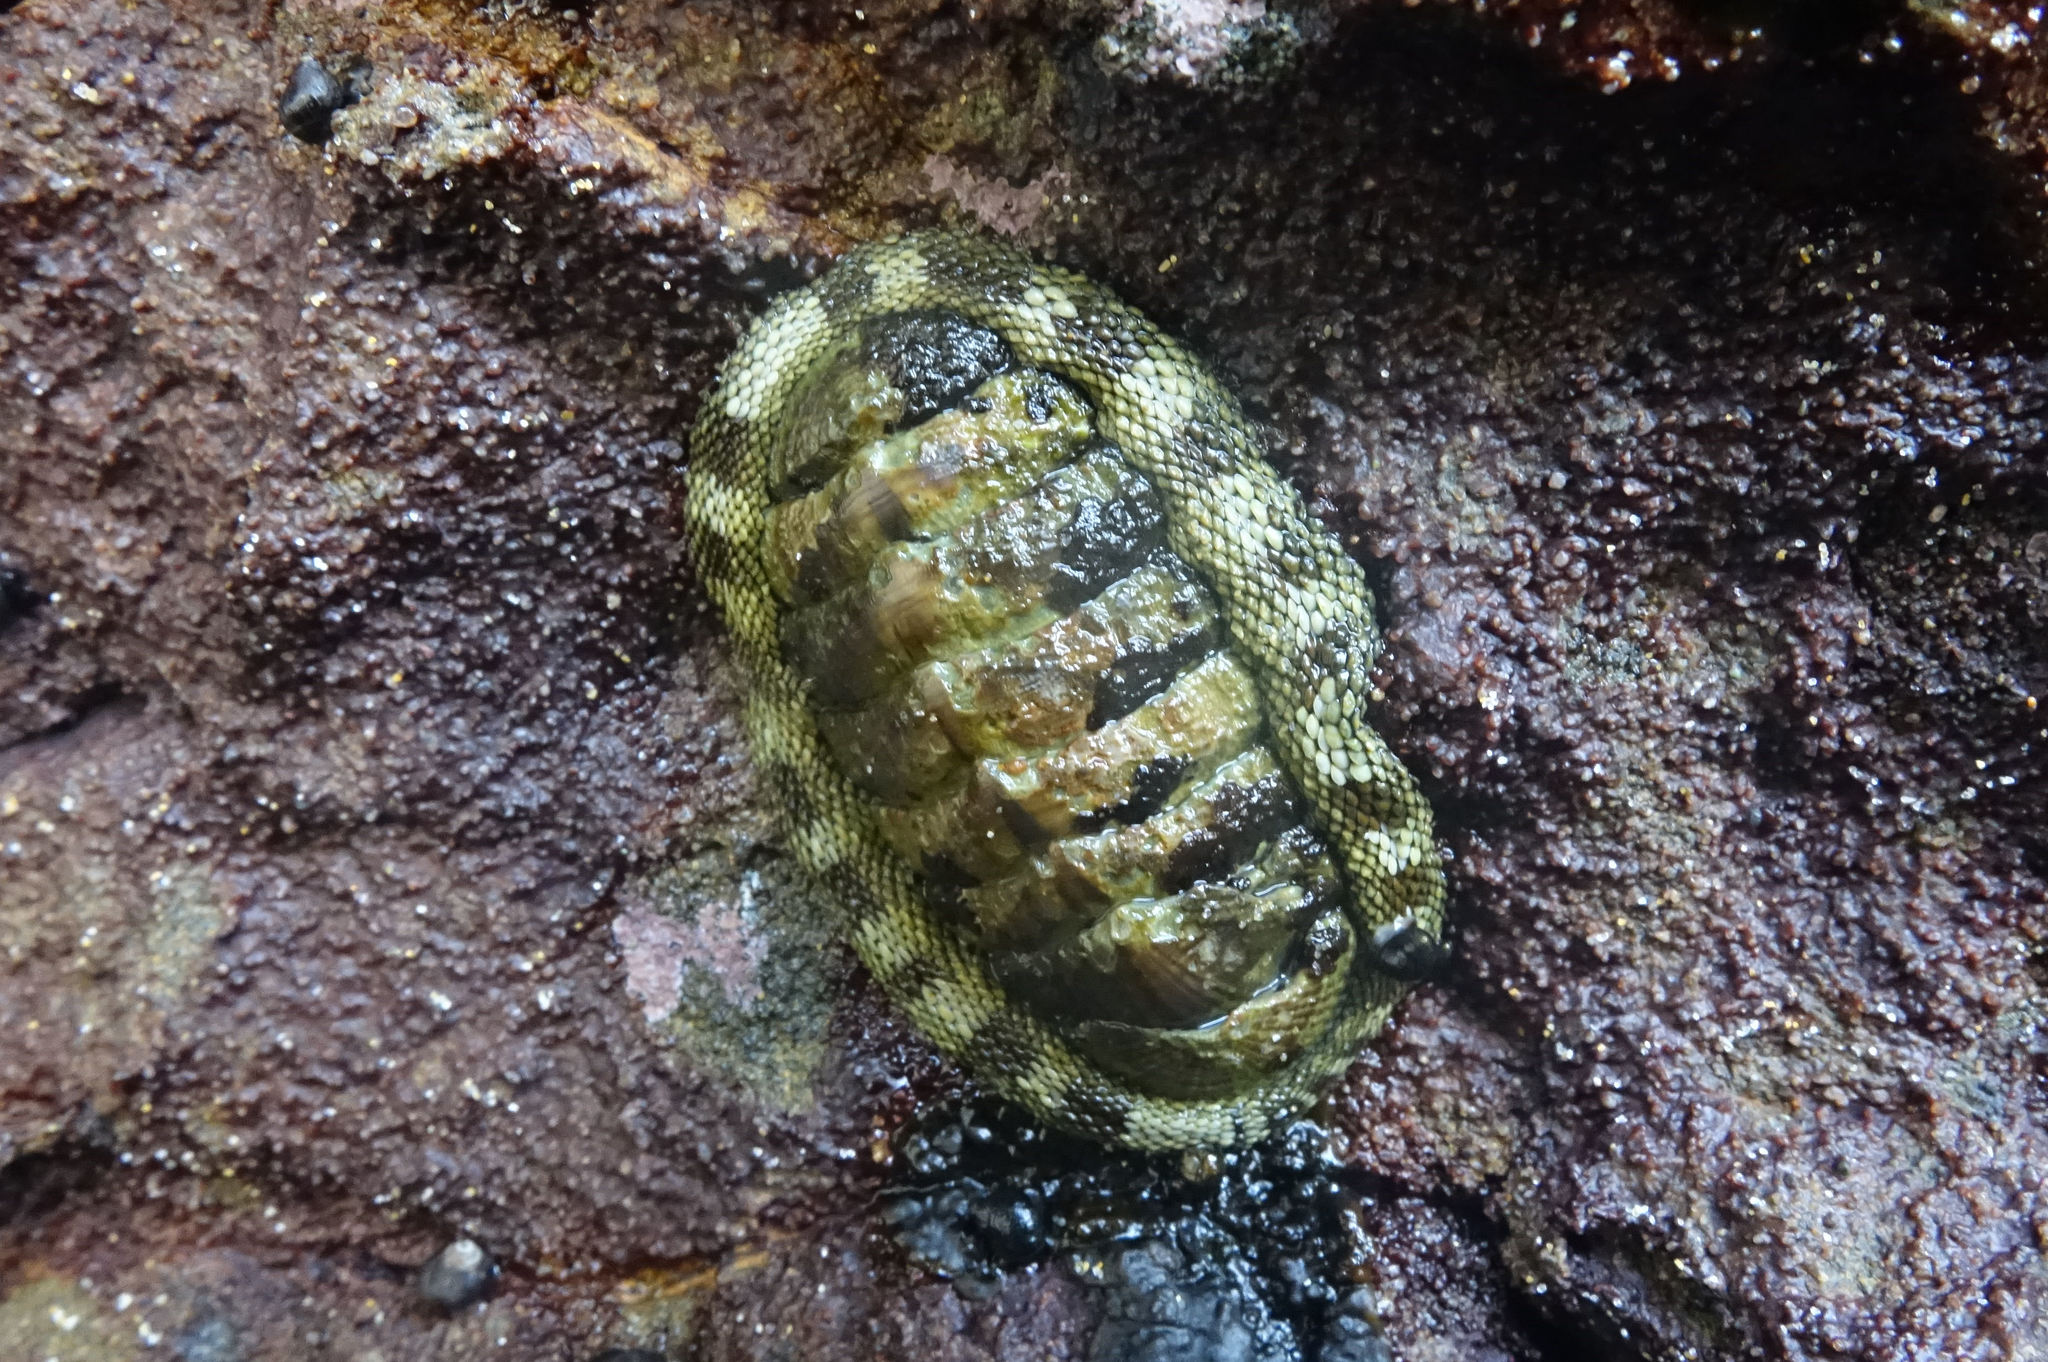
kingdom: Animalia
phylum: Mollusca
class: Polyplacophora
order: Chitonida
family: Chitonidae
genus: Sypharochiton
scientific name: Sypharochiton pelliserpentis
